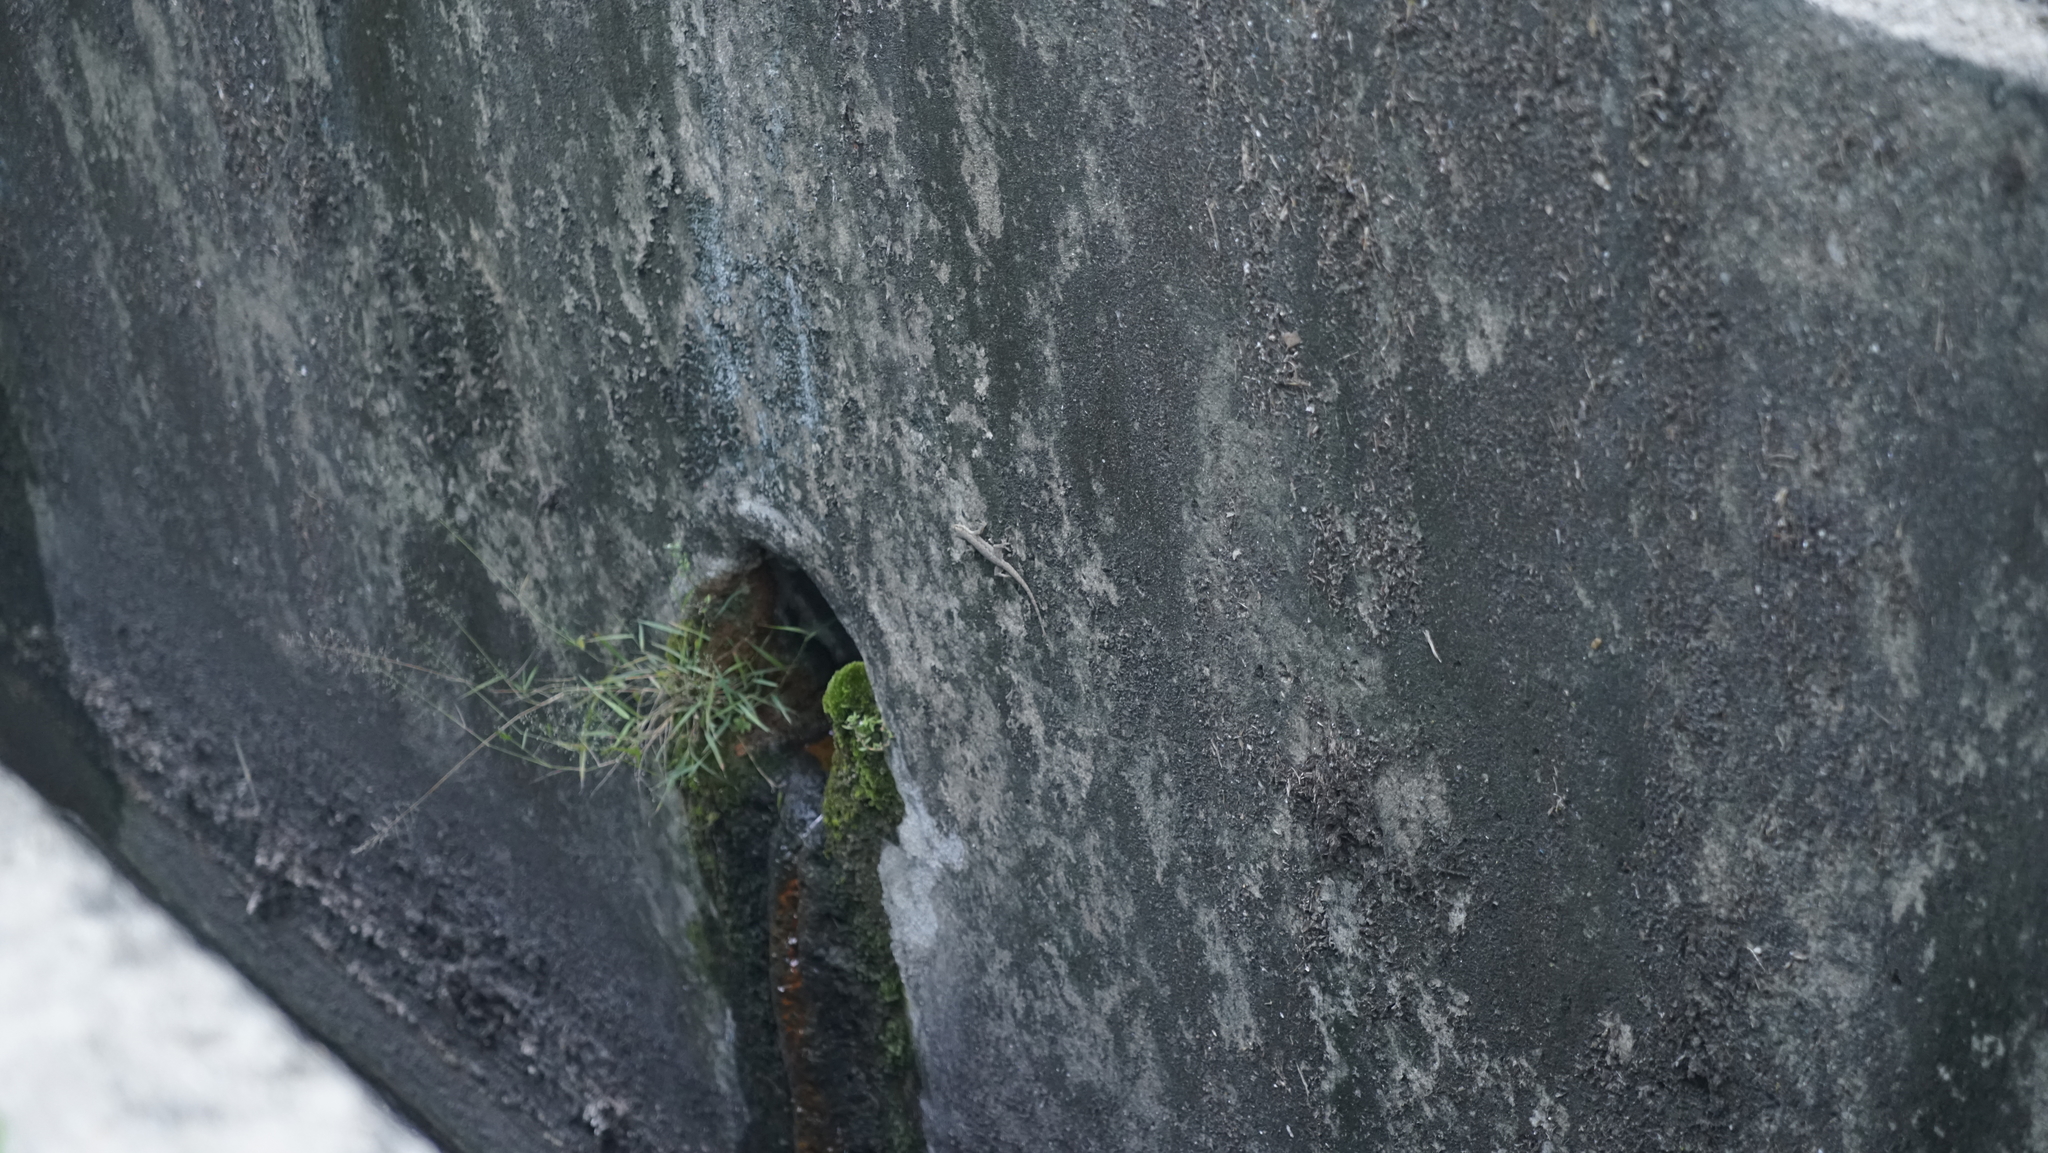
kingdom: Animalia
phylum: Chordata
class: Squamata
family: Gekkonidae
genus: Hemidactylus
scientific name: Hemidactylus platyurus
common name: Flat-tailed house gecko
